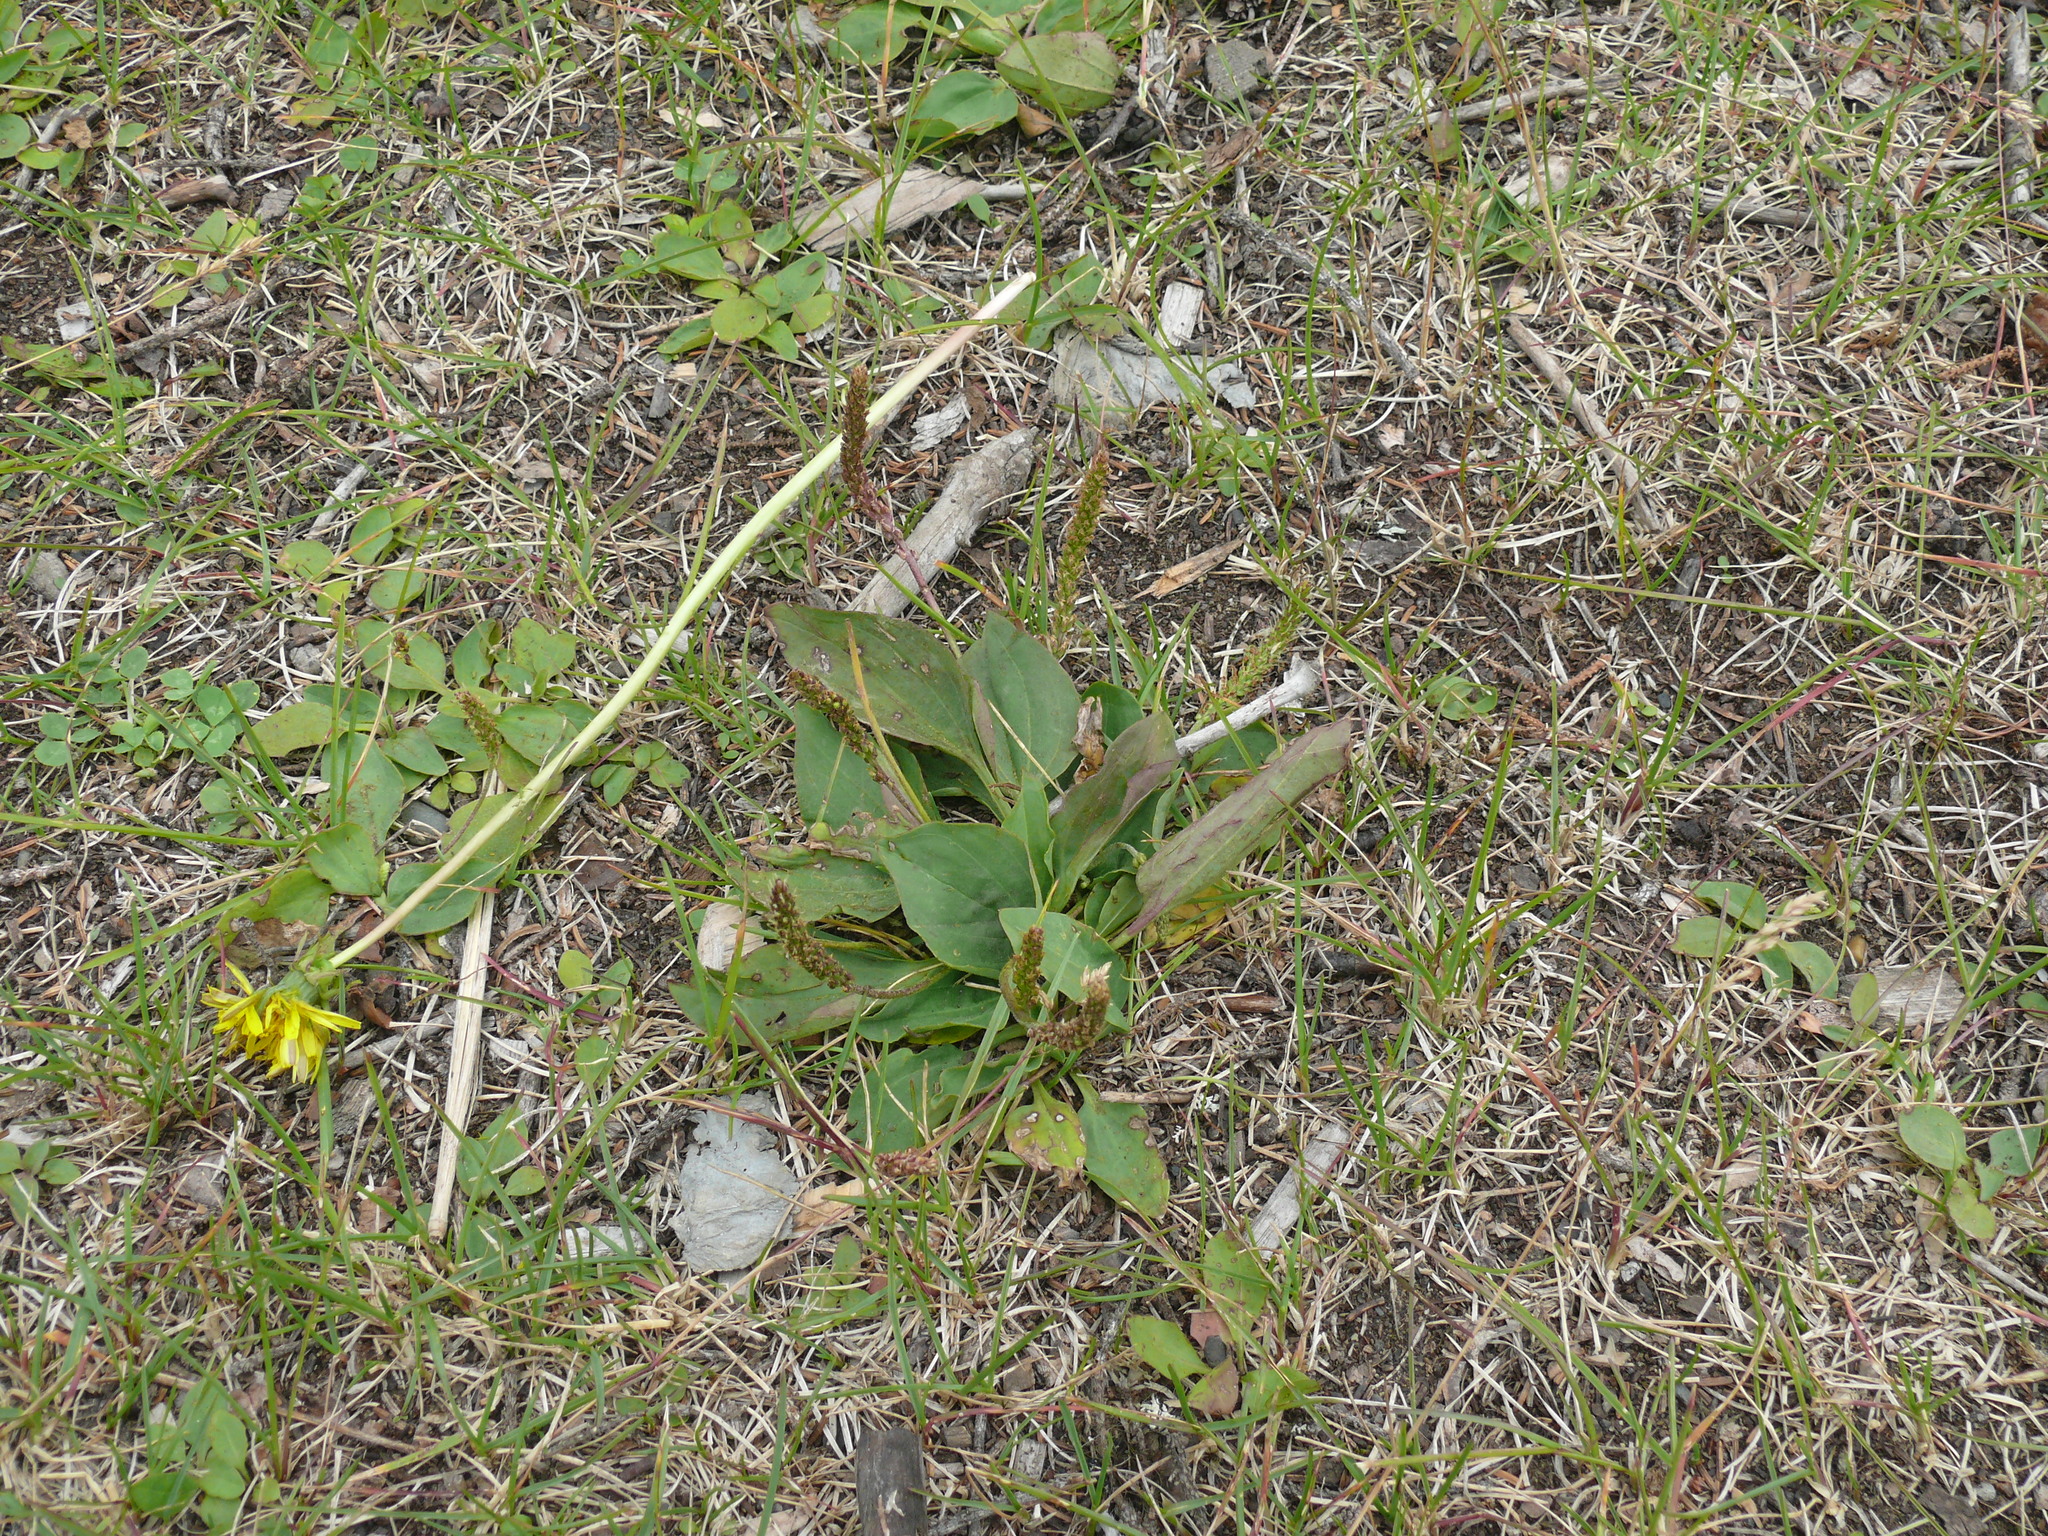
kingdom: Plantae
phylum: Tracheophyta
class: Magnoliopsida
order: Lamiales
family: Plantaginaceae
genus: Plantago
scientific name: Plantago major
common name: Common plantain
